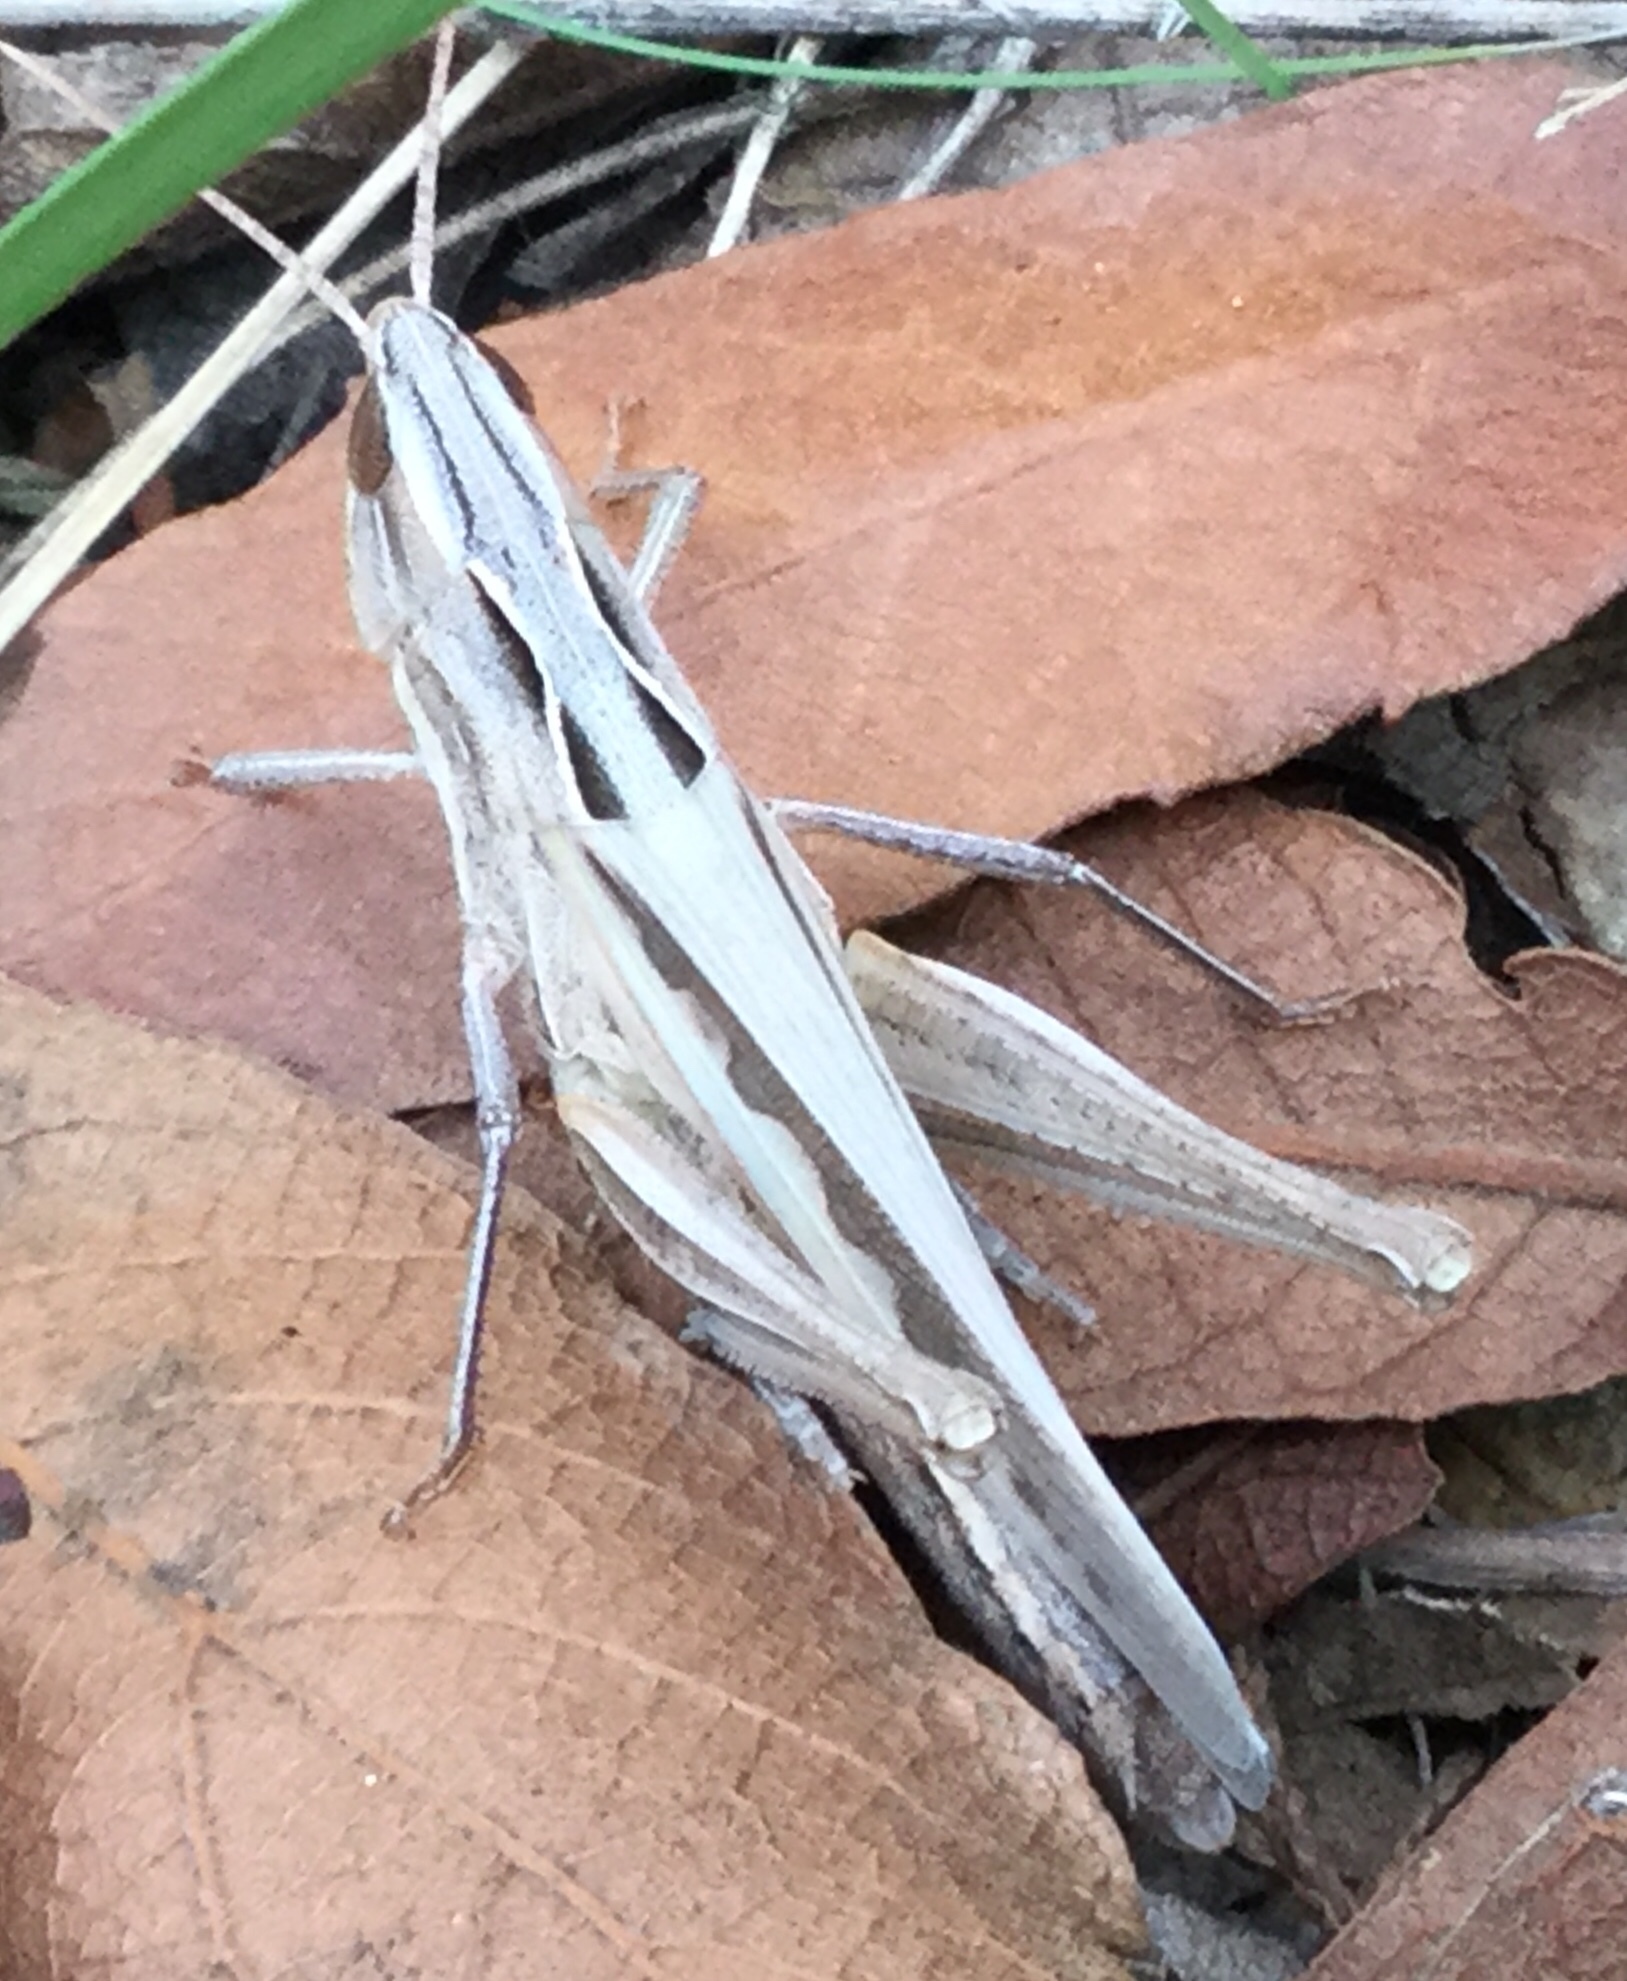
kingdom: Animalia
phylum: Arthropoda
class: Insecta
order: Orthoptera
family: Acrididae
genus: Syrbula
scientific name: Syrbula montezuma
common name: Montezuma's grasshopper
